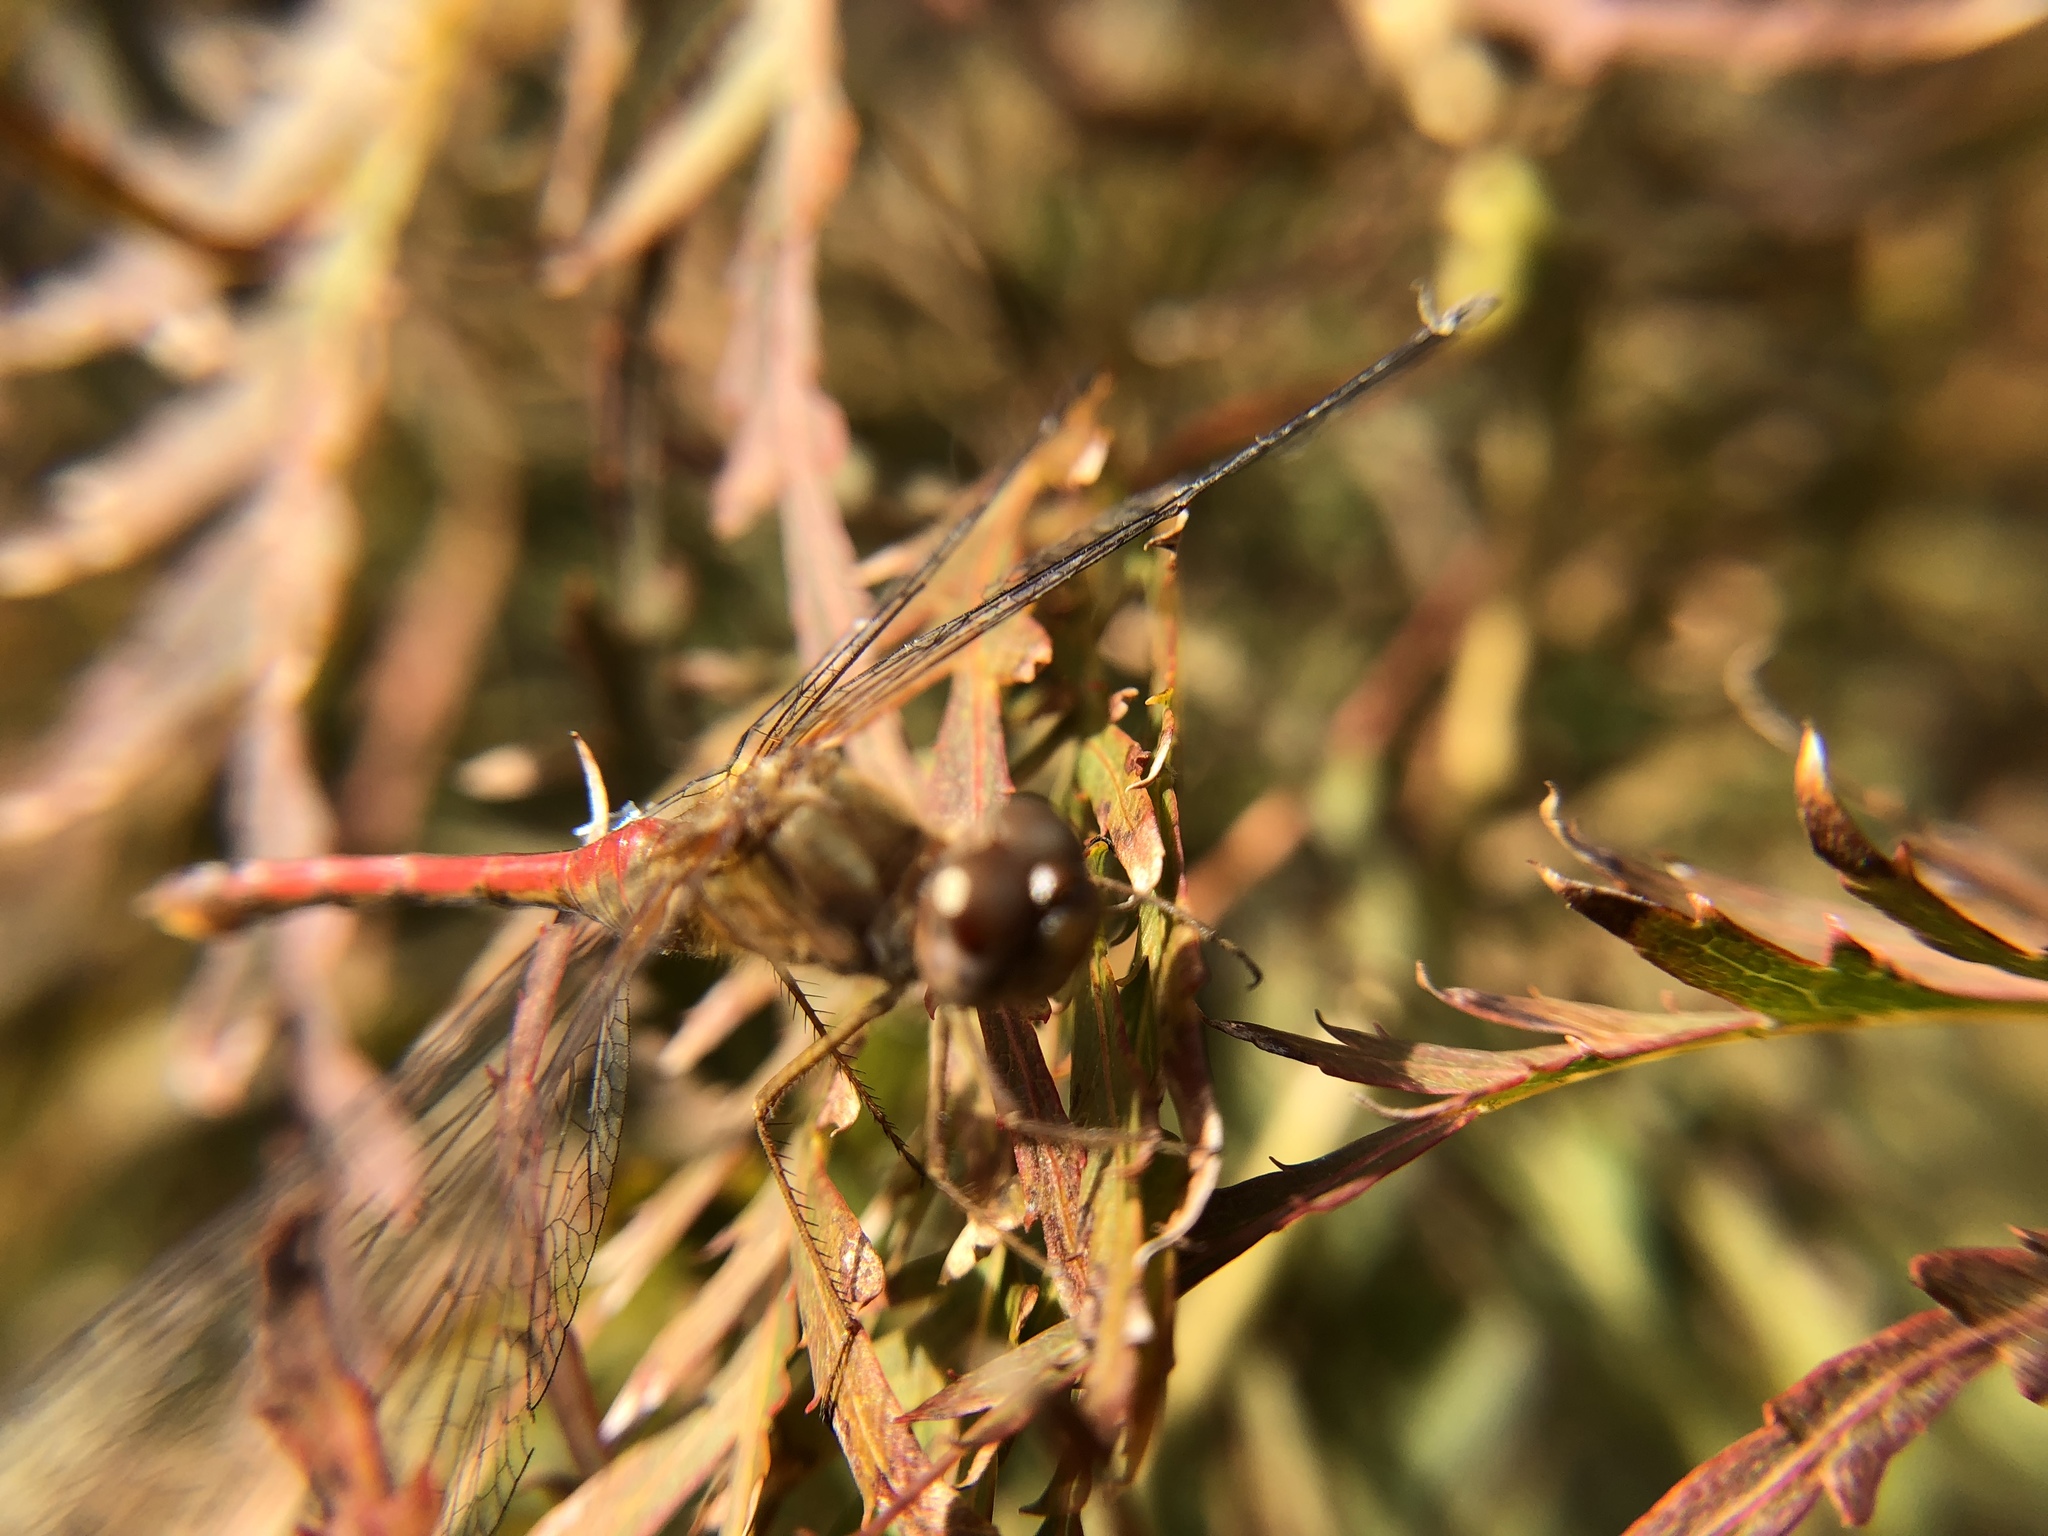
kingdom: Animalia
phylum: Arthropoda
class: Insecta
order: Odonata
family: Libellulidae
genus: Sympetrum
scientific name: Sympetrum vicinum
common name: Autumn meadowhawk
